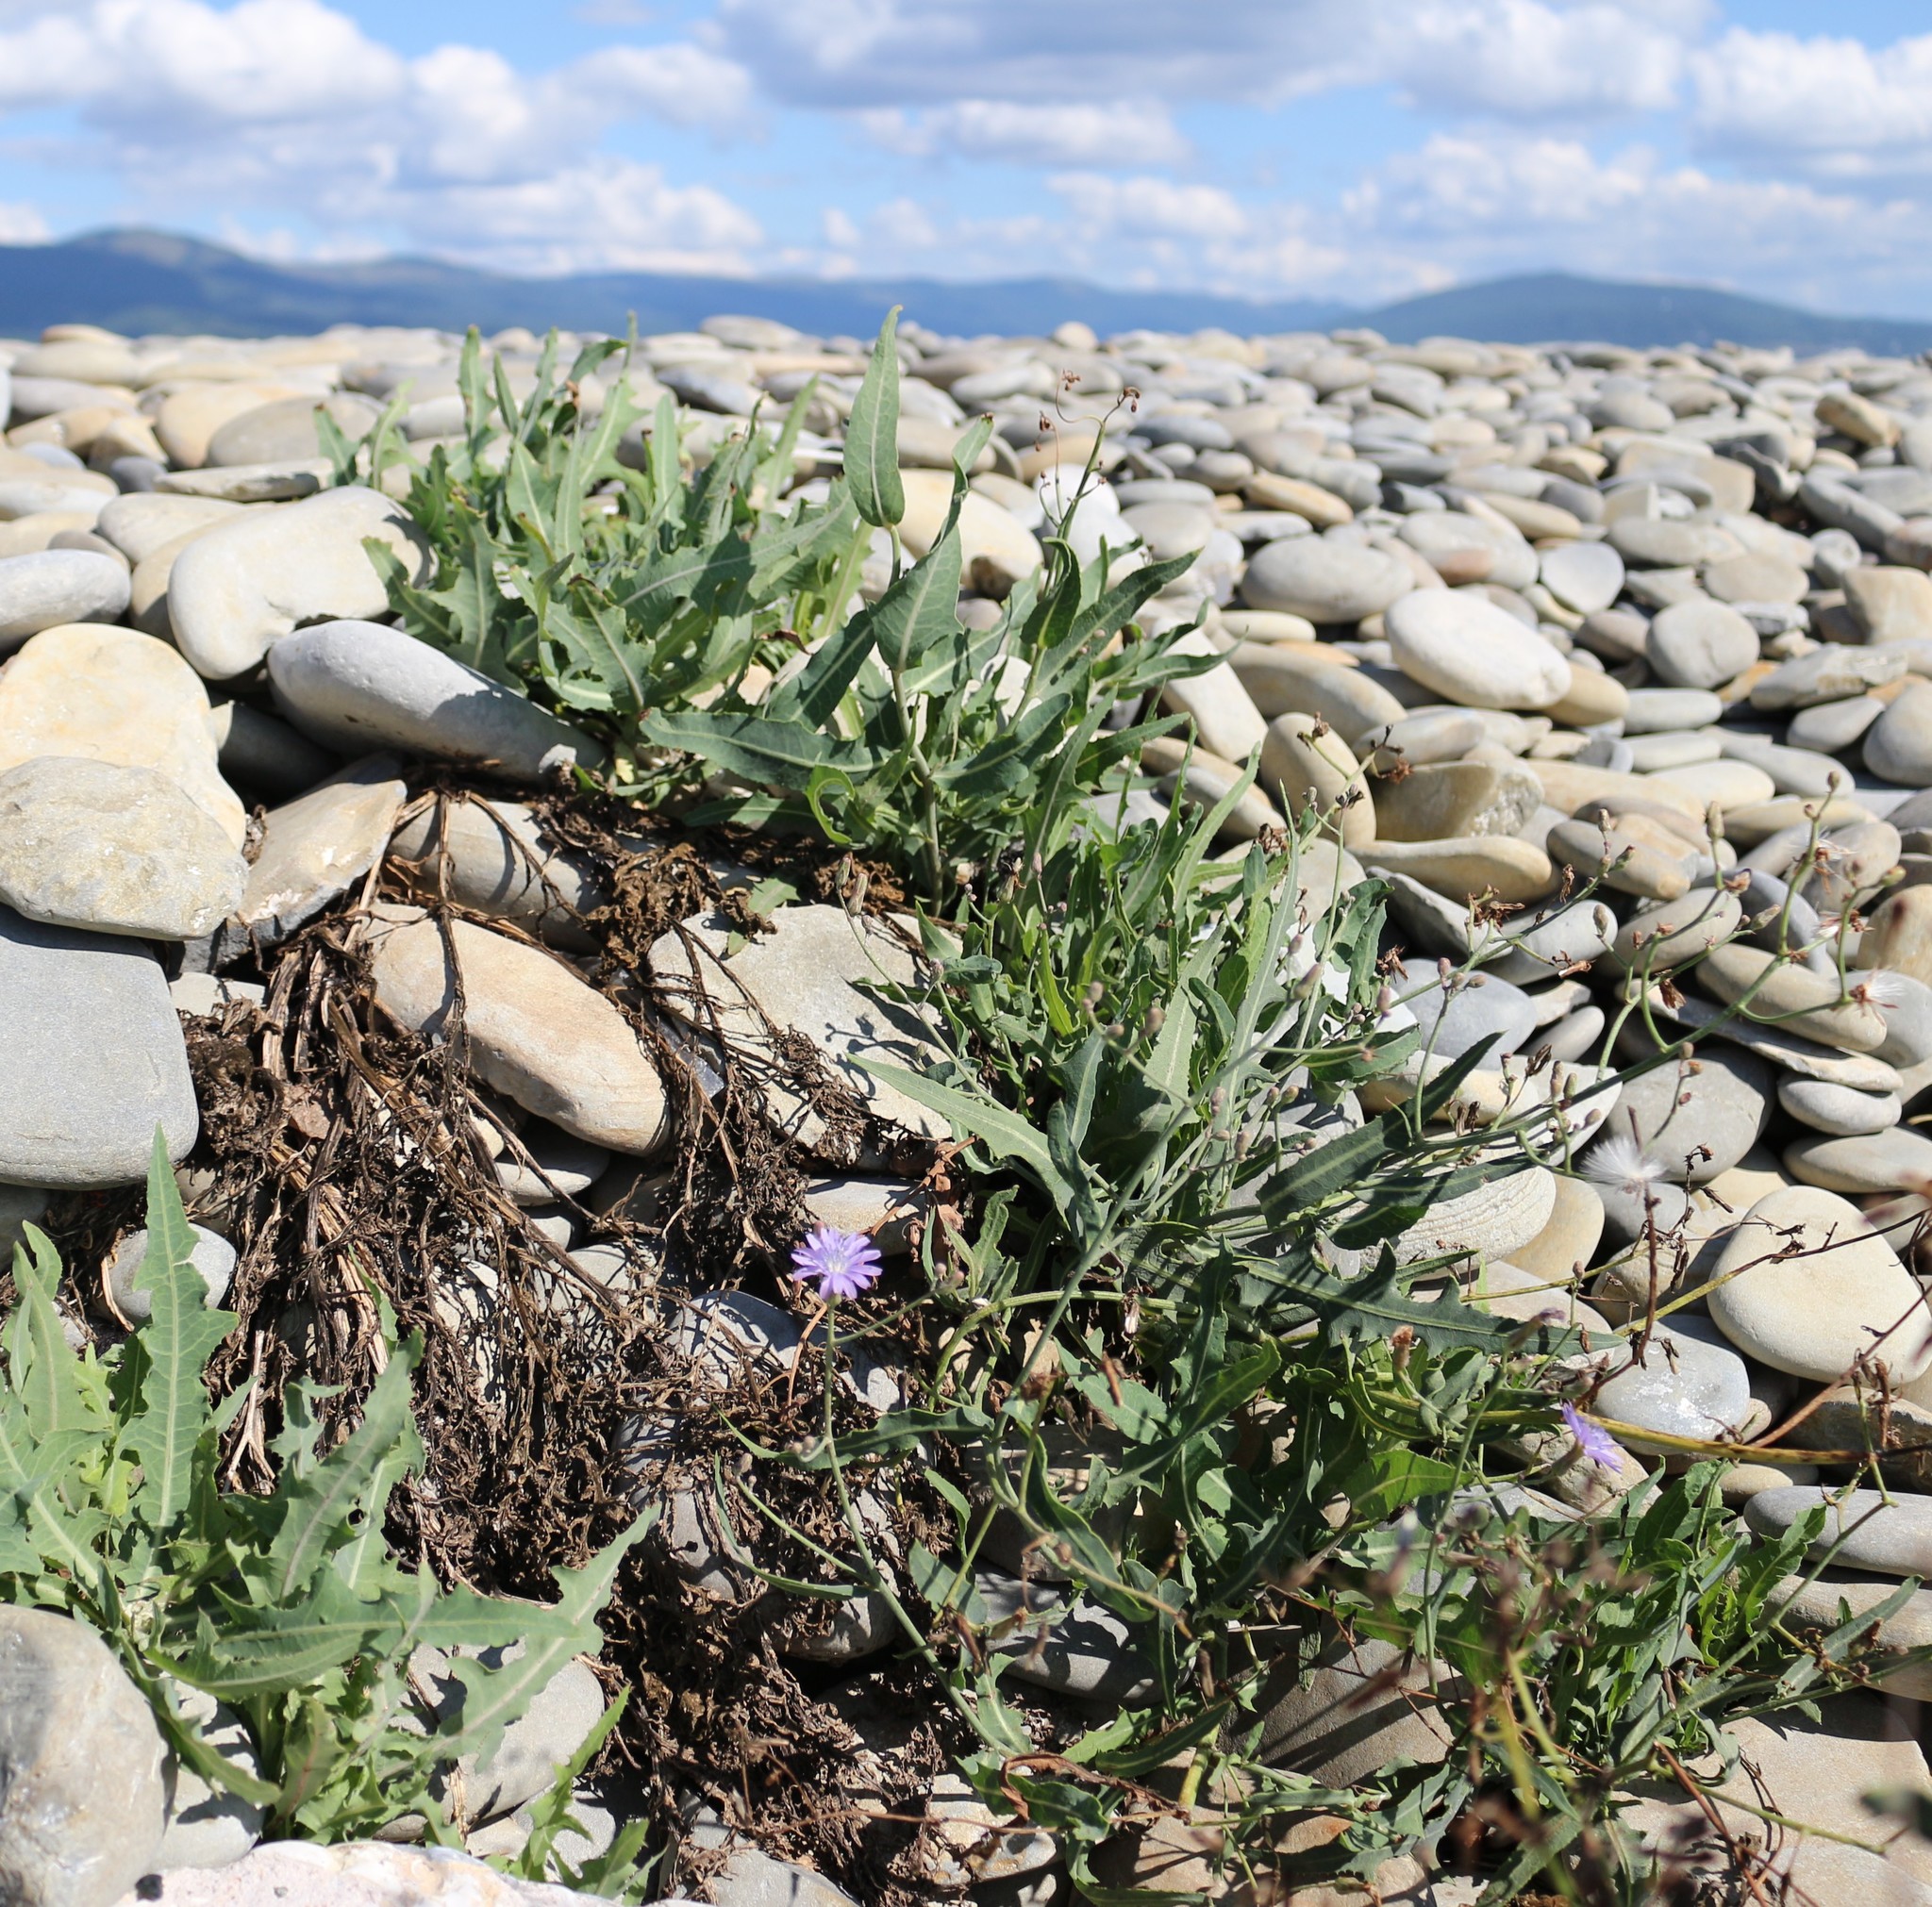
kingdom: Plantae
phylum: Tracheophyta
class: Magnoliopsida
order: Asterales
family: Asteraceae
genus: Lactuca
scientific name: Lactuca tatarica
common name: Blue lettuce
